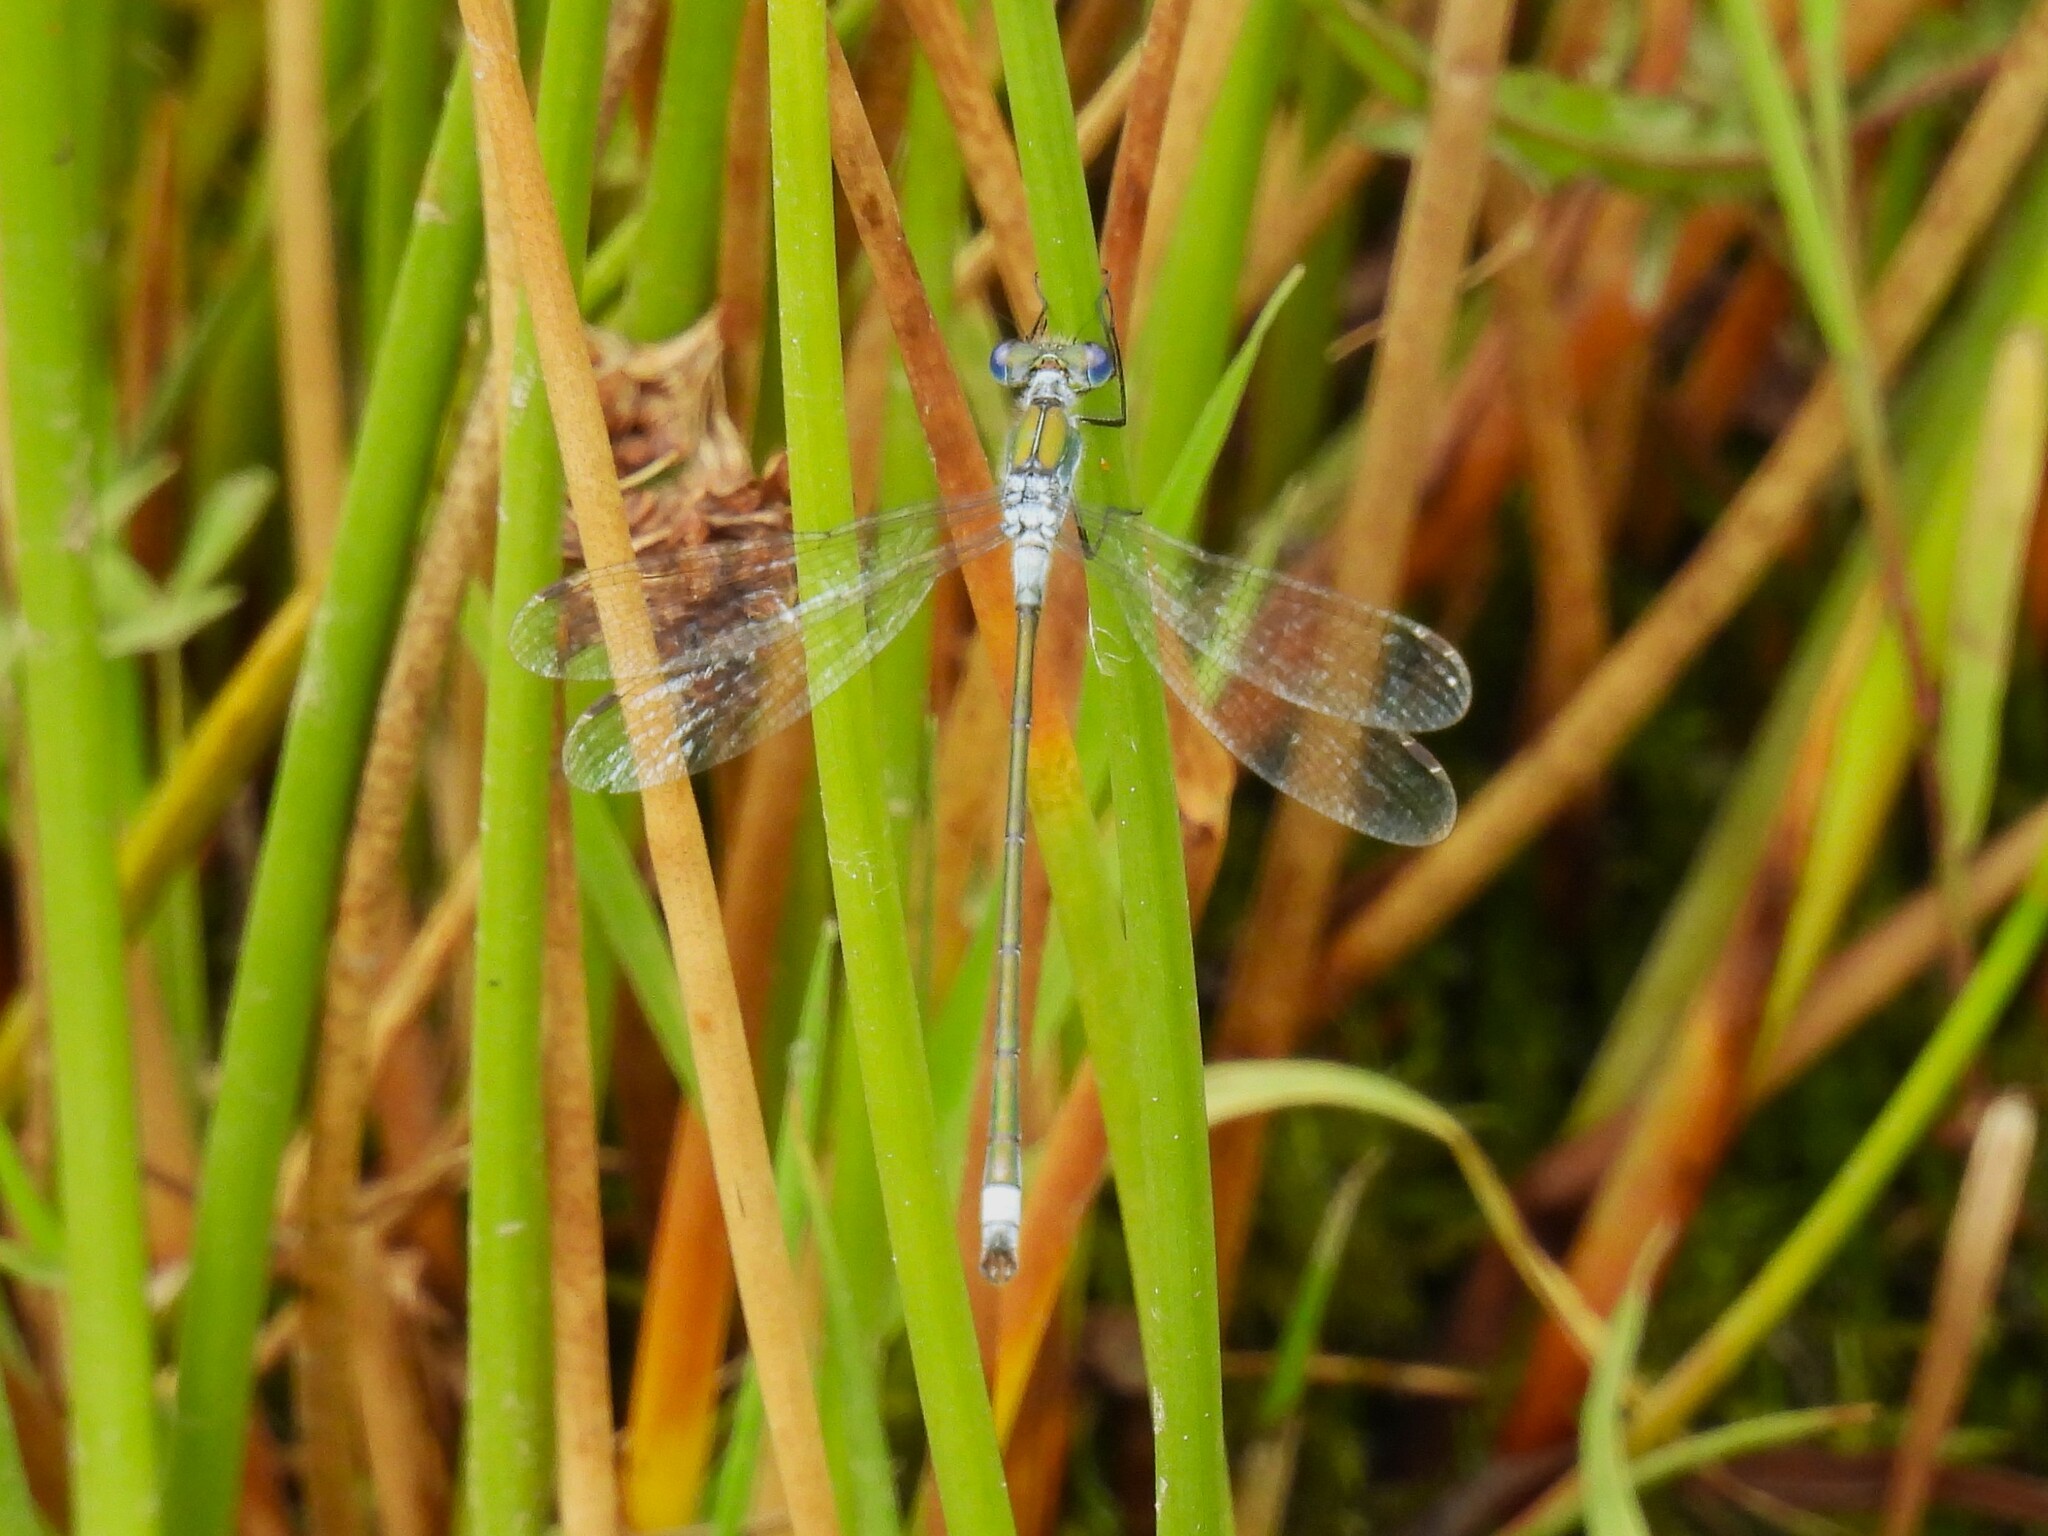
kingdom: Animalia
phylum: Arthropoda
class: Insecta
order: Odonata
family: Lestidae
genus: Lestes
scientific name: Lestes sponsa
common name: Common spreadwing
